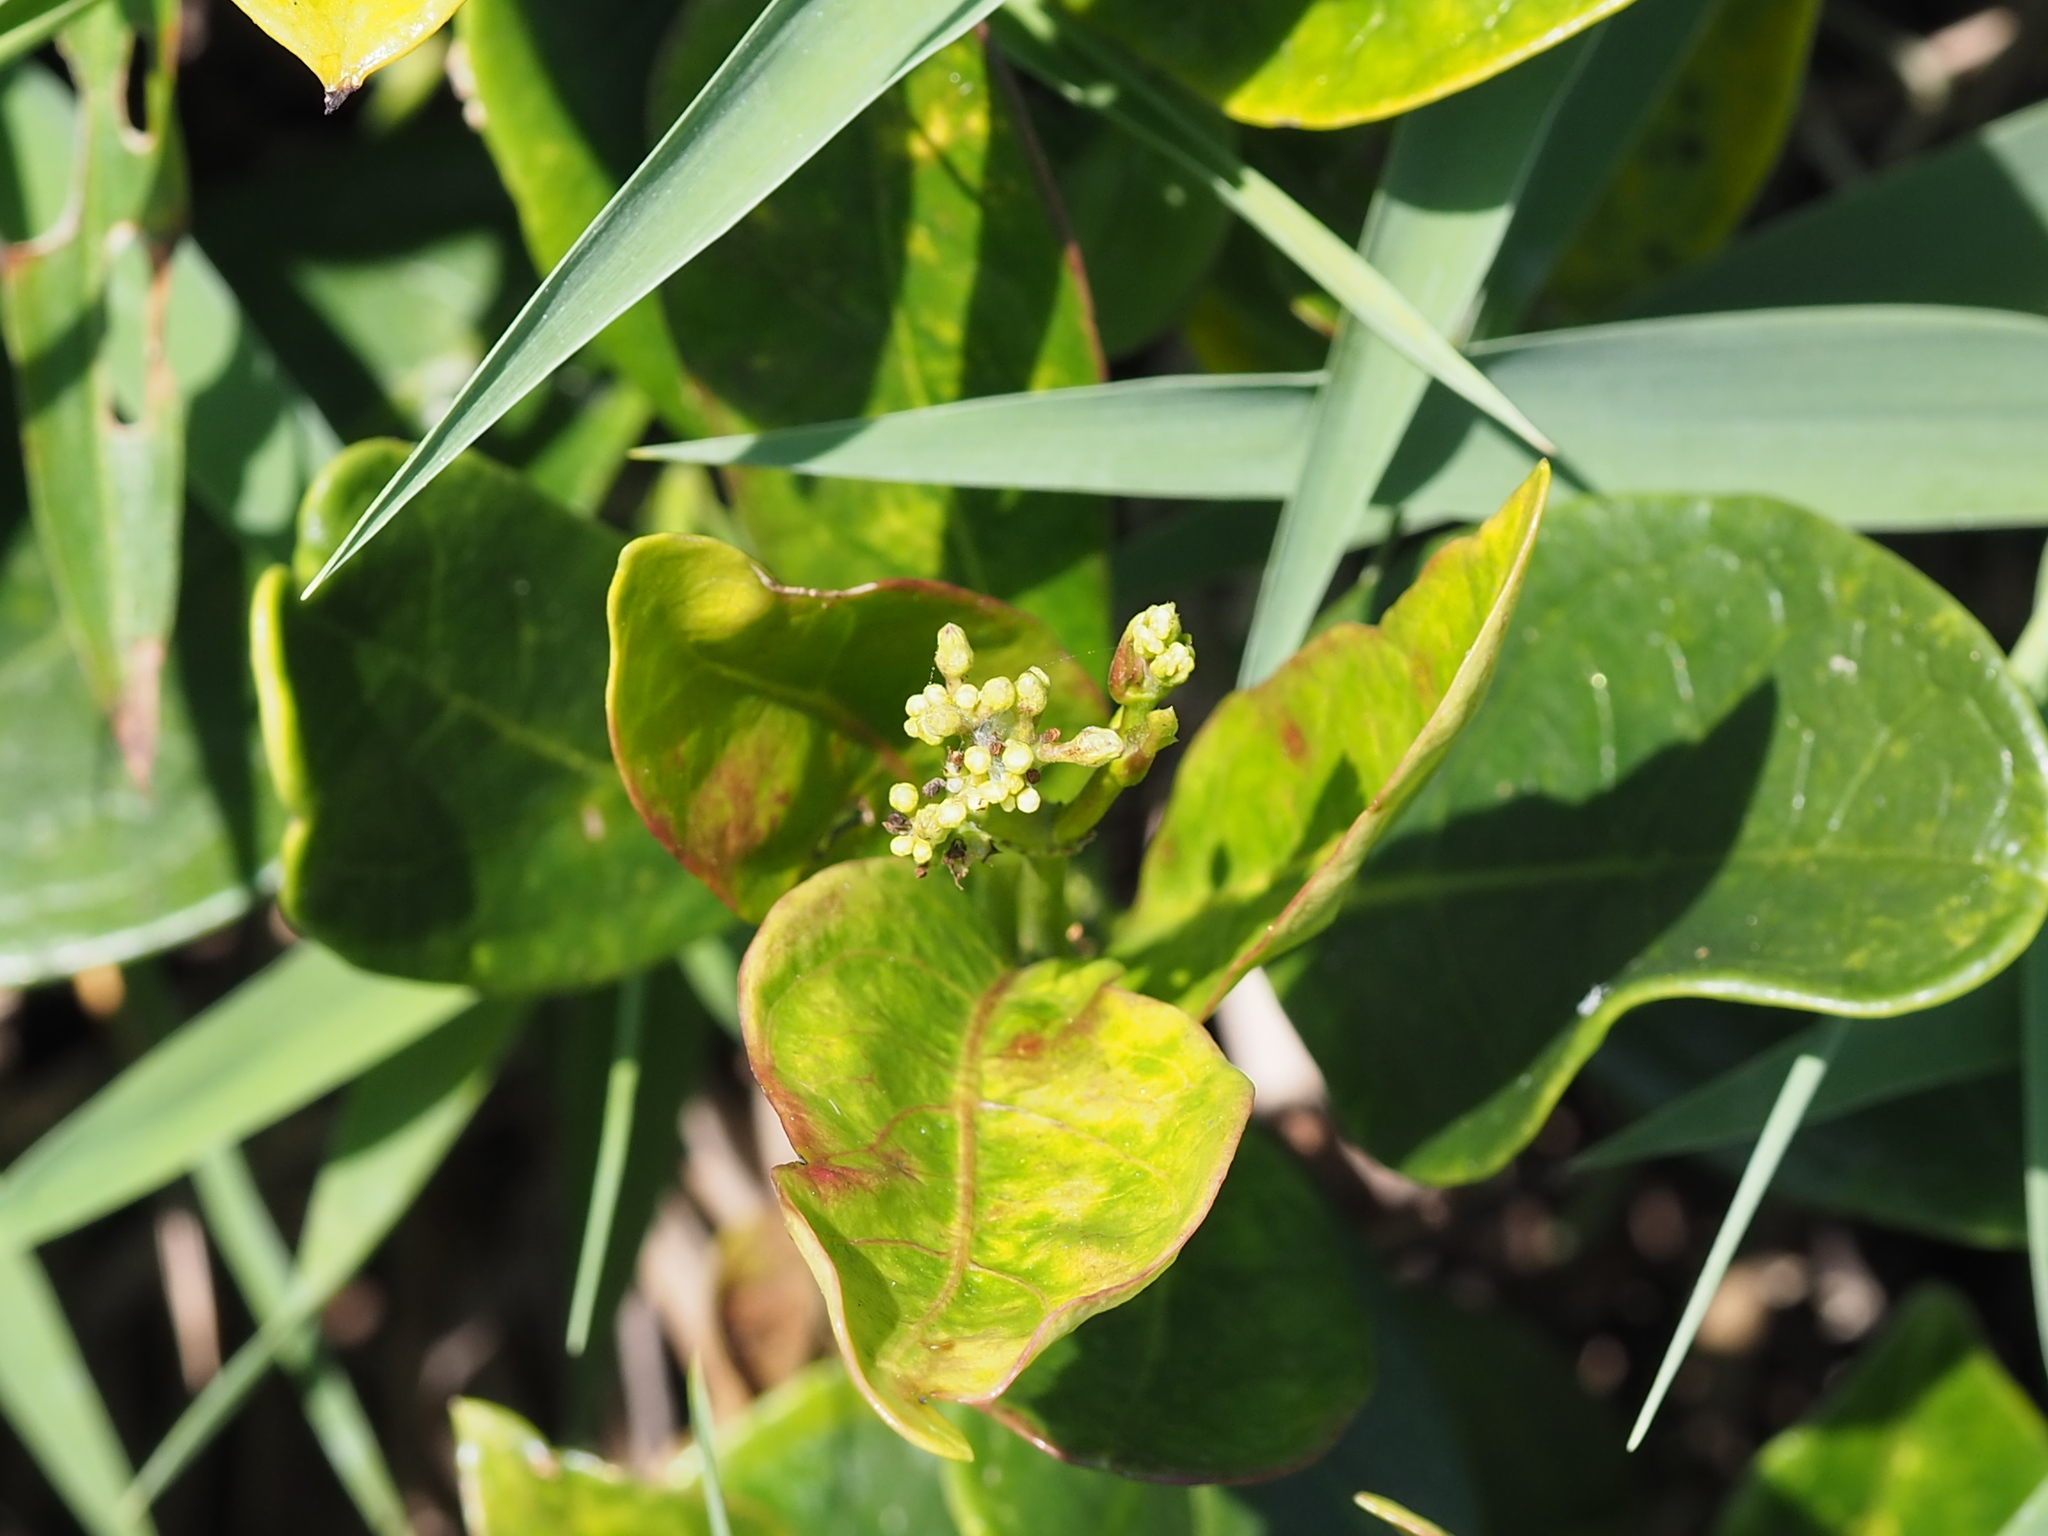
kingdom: Plantae
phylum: Tracheophyta
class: Magnoliopsida
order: Gentianales
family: Apocynaceae
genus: Parsonsia
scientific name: Parsonsia alboflavescens
